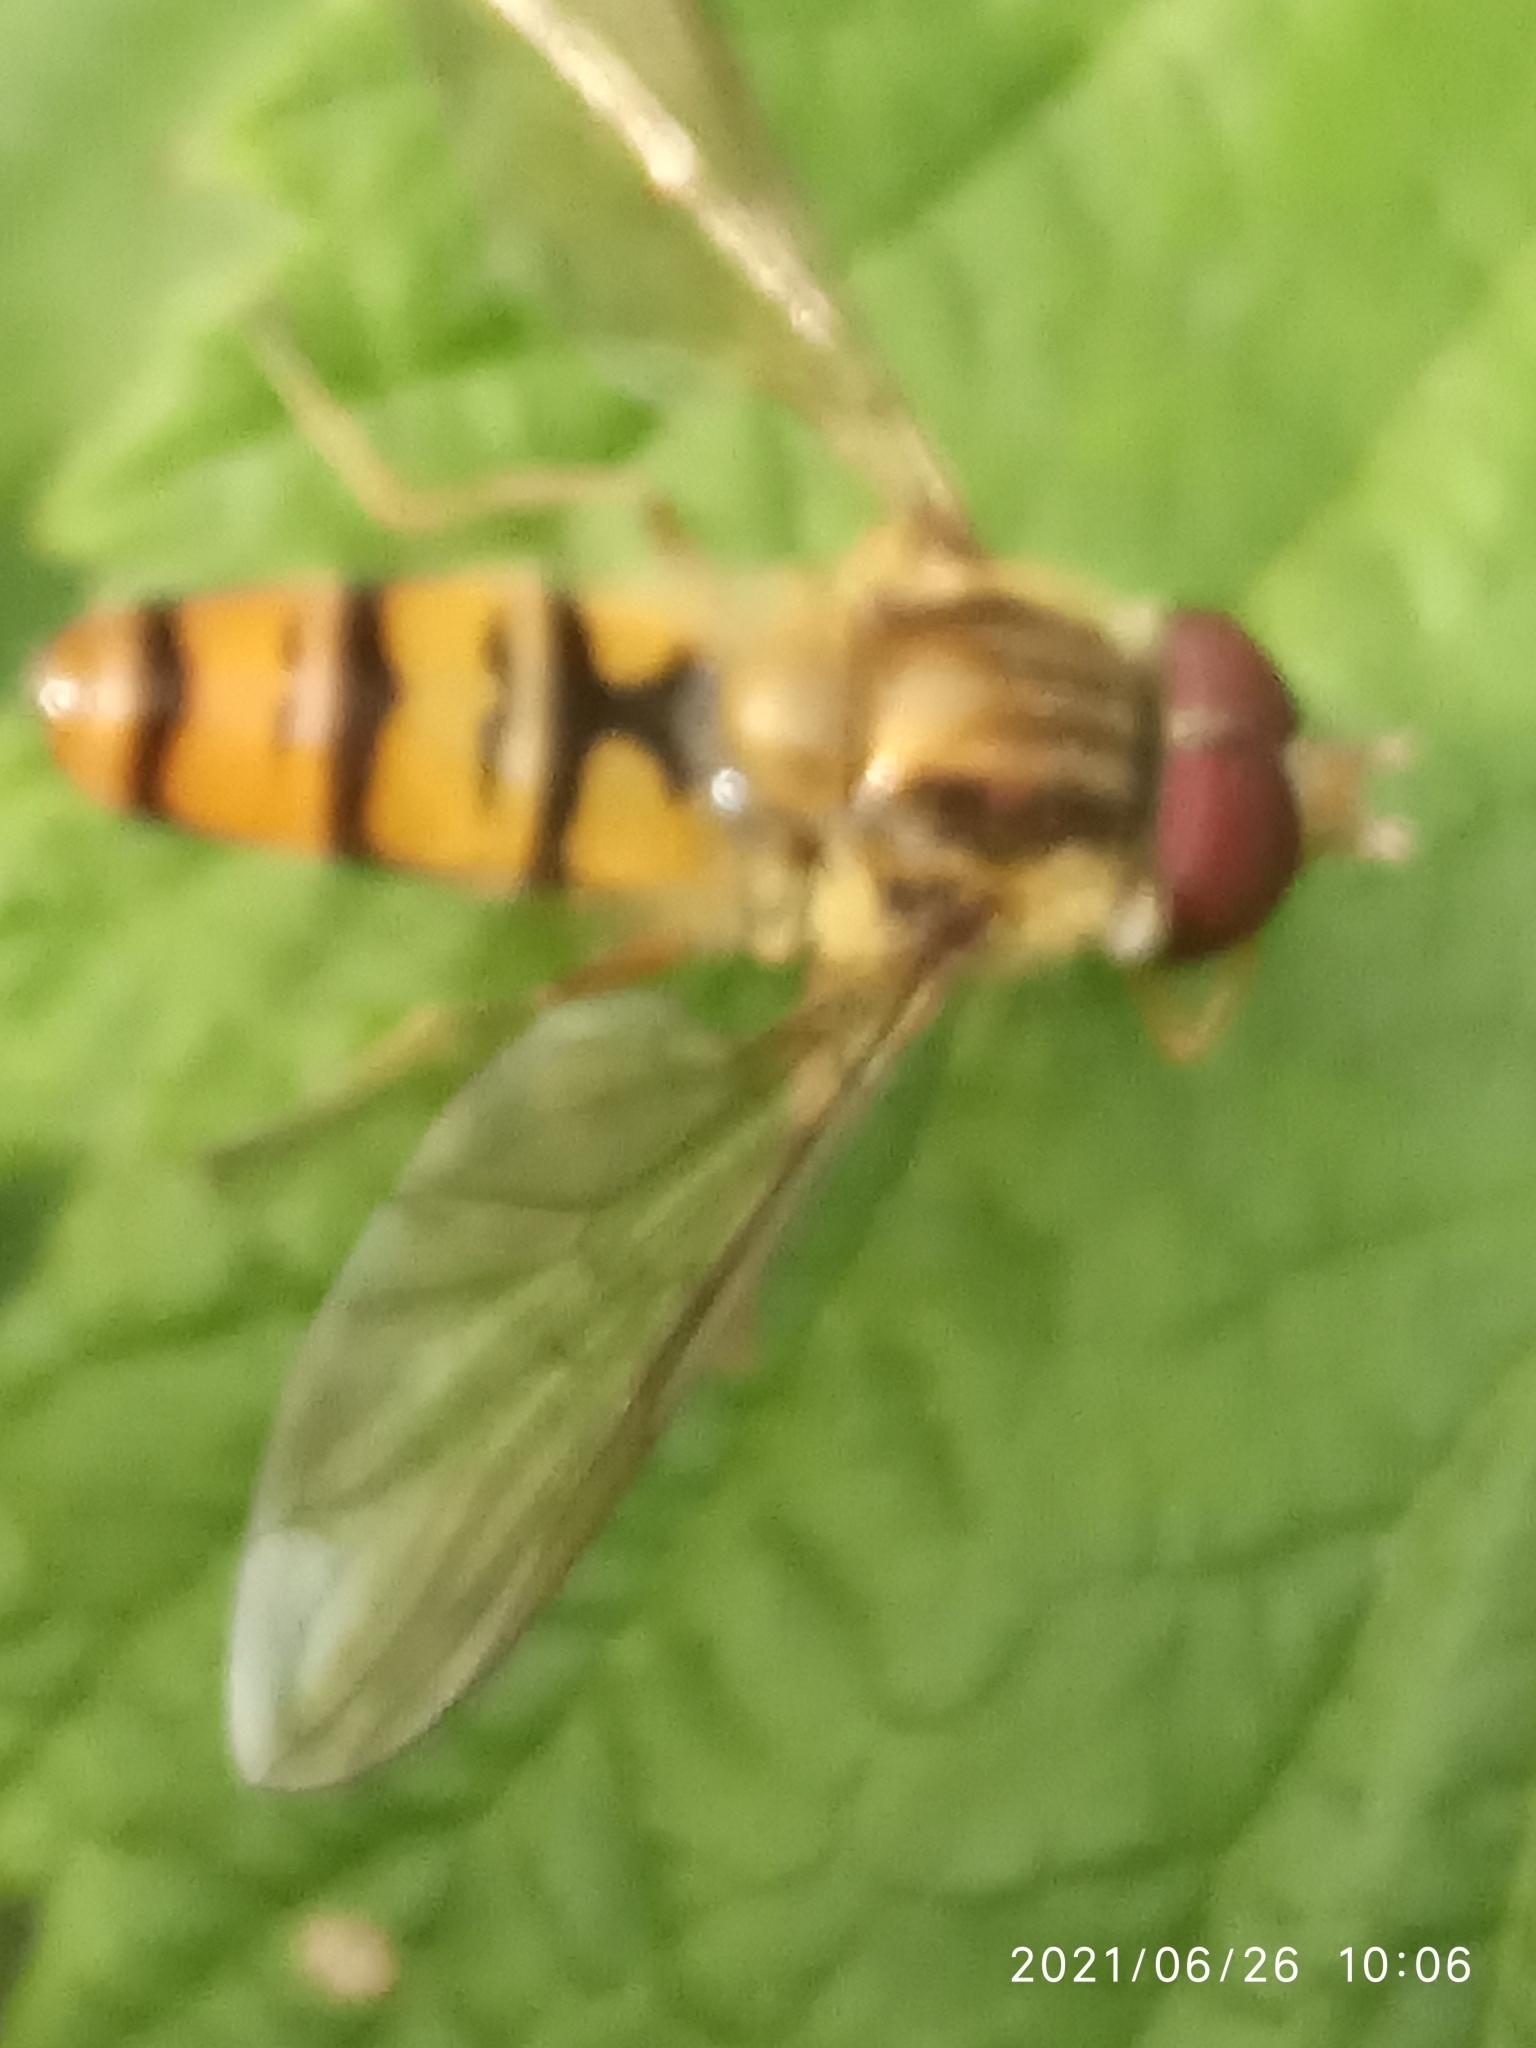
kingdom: Animalia
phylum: Arthropoda
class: Insecta
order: Diptera
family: Syrphidae
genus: Episyrphus
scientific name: Episyrphus balteatus
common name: Marmalade hoverfly
